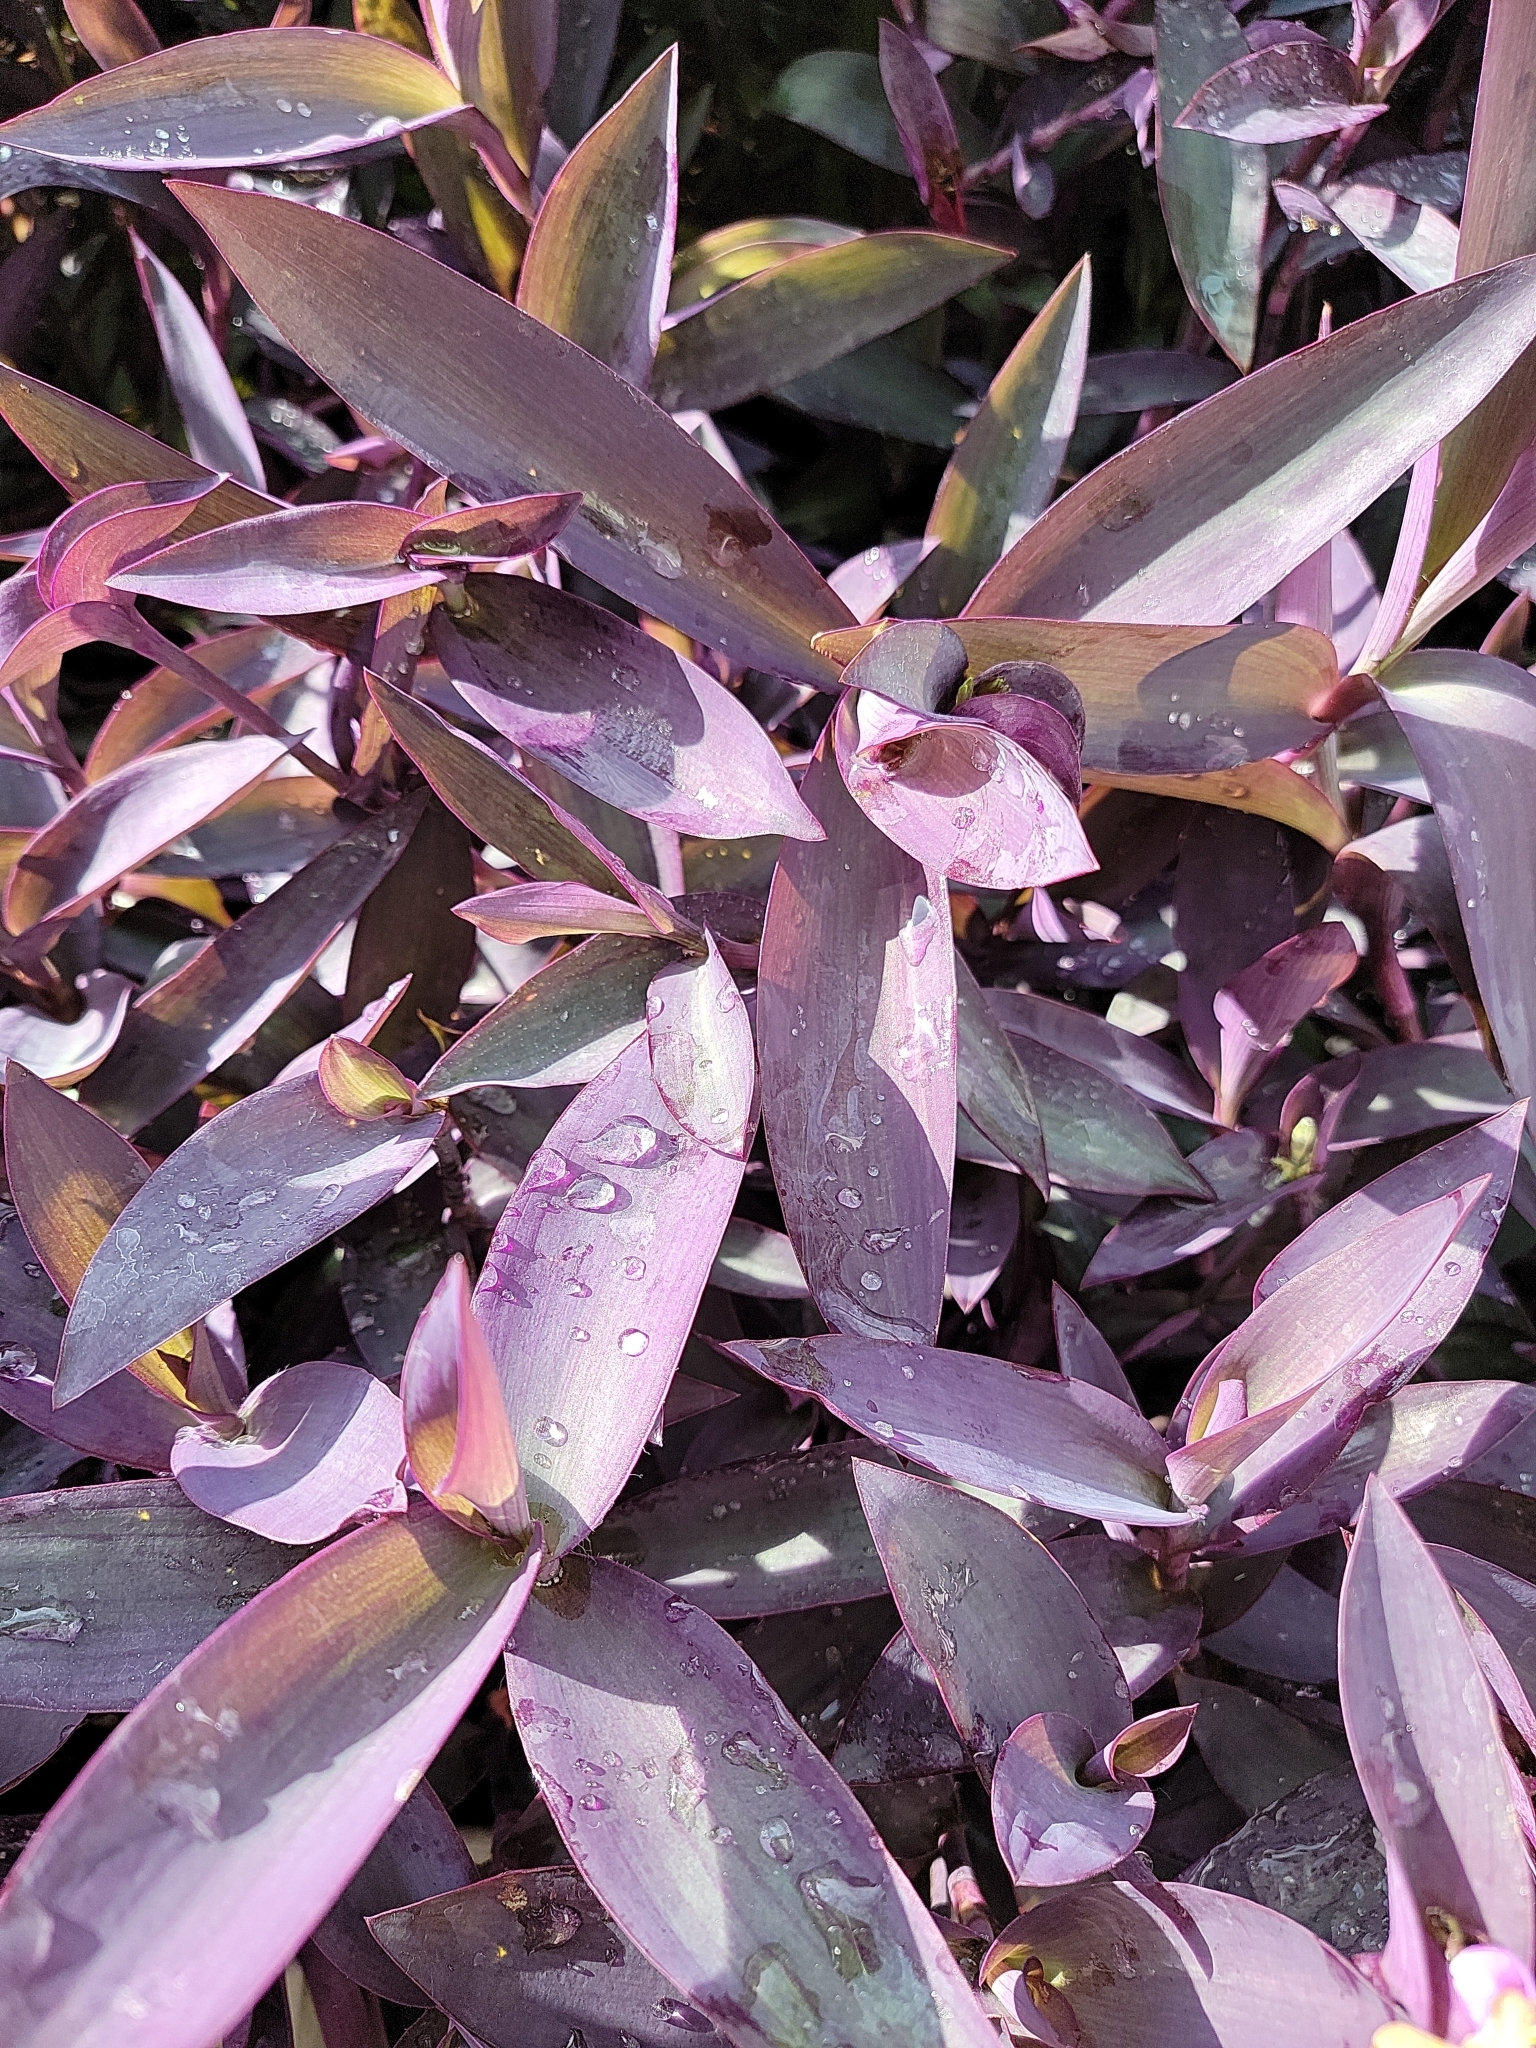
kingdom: Plantae
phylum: Tracheophyta
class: Liliopsida
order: Commelinales
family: Commelinaceae
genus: Tradescantia
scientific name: Tradescantia pallida
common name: Purpleheart
